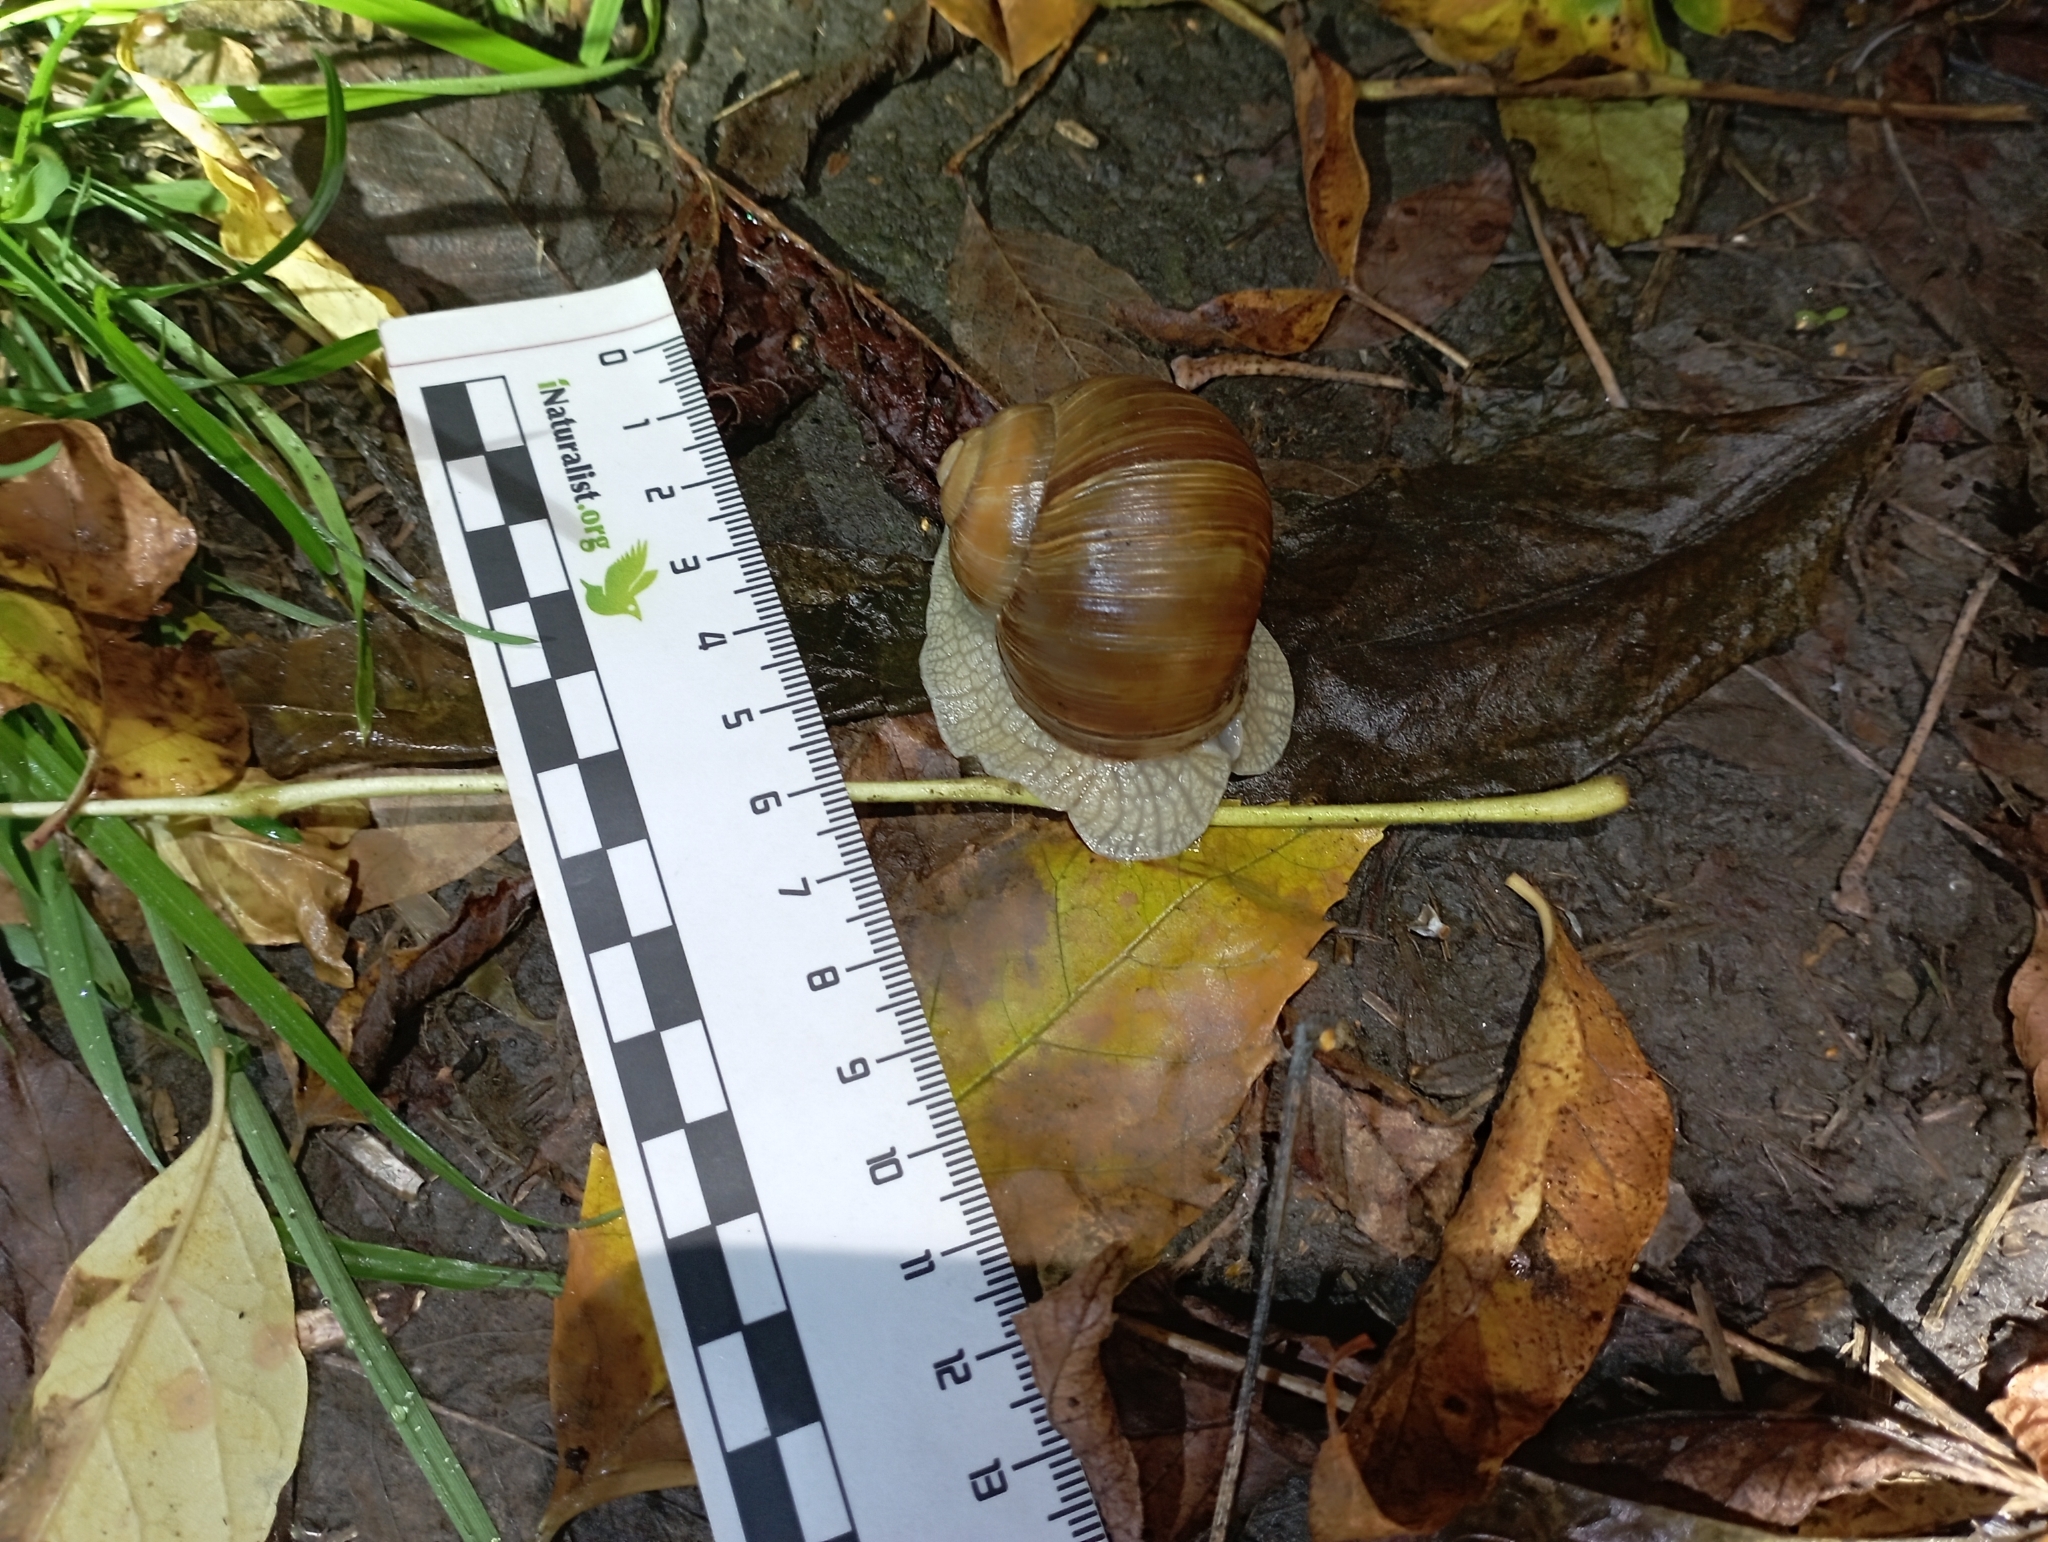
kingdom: Animalia
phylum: Mollusca
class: Gastropoda
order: Stylommatophora
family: Helicidae
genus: Helix
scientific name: Helix pomatia
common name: Roman snail
